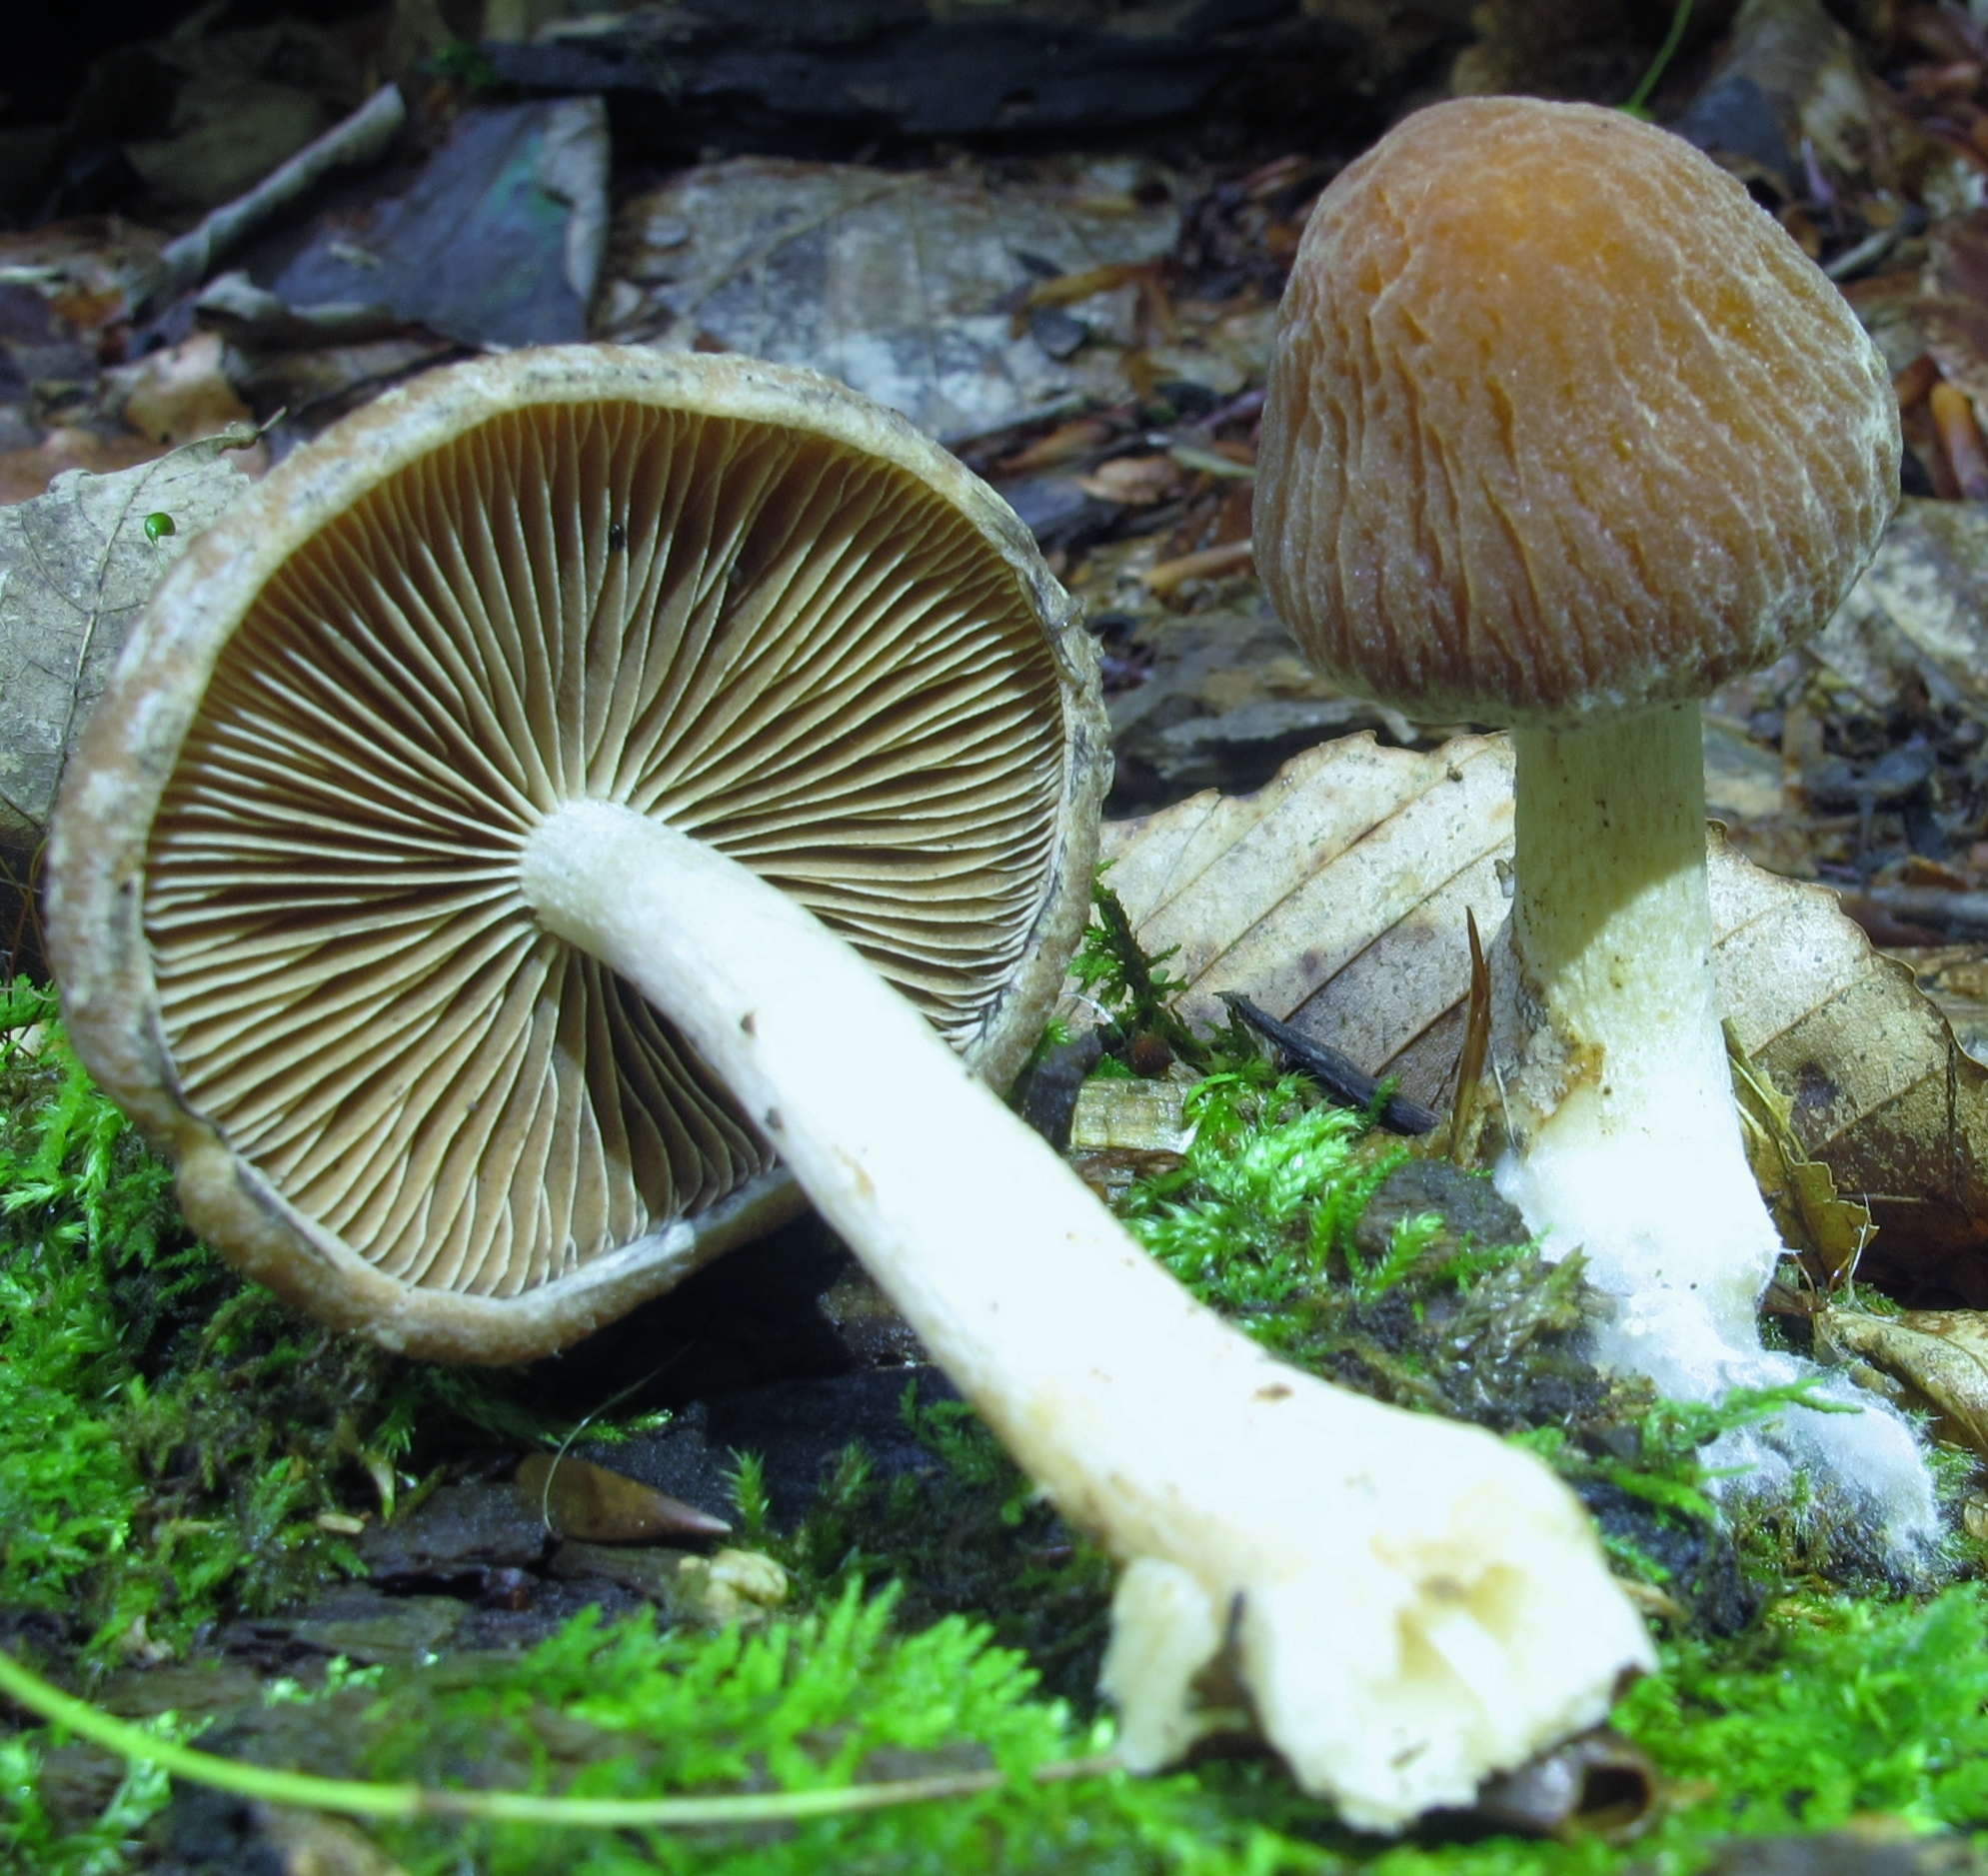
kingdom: Fungi
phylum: Basidiomycota
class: Agaricomycetes
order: Agaricales
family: Psathyrellaceae
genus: Typhrasa
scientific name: Typhrasa gossypina
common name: Wrinkled psathyrella
